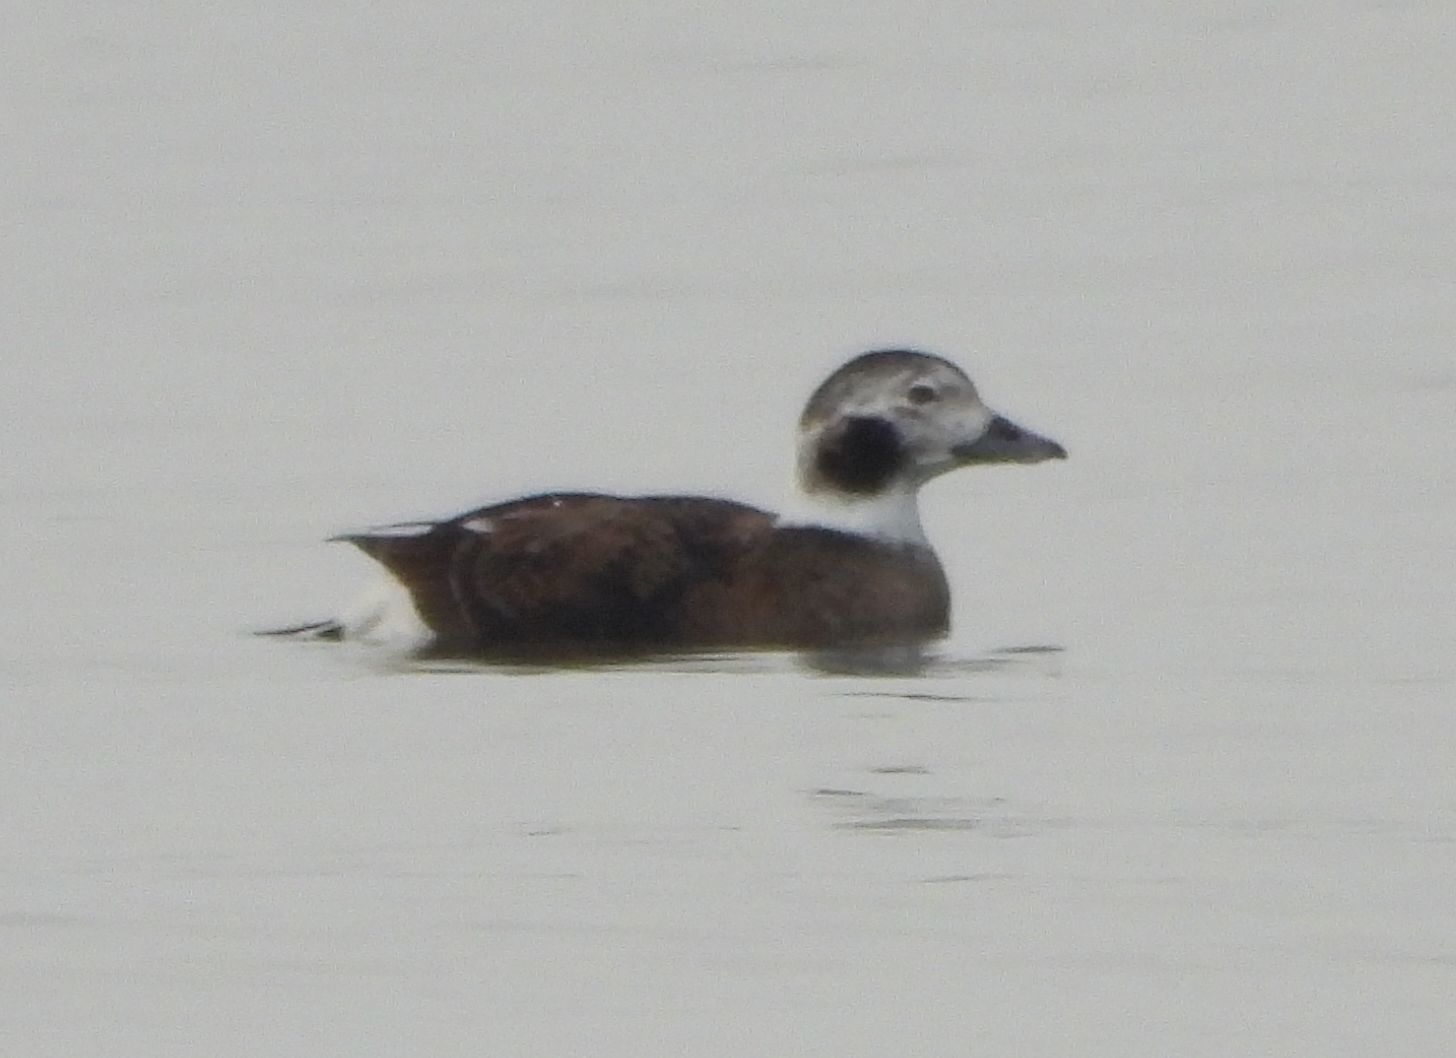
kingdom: Animalia
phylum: Chordata
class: Aves
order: Anseriformes
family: Anatidae
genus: Clangula
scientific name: Clangula hyemalis
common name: Long-tailed duck
